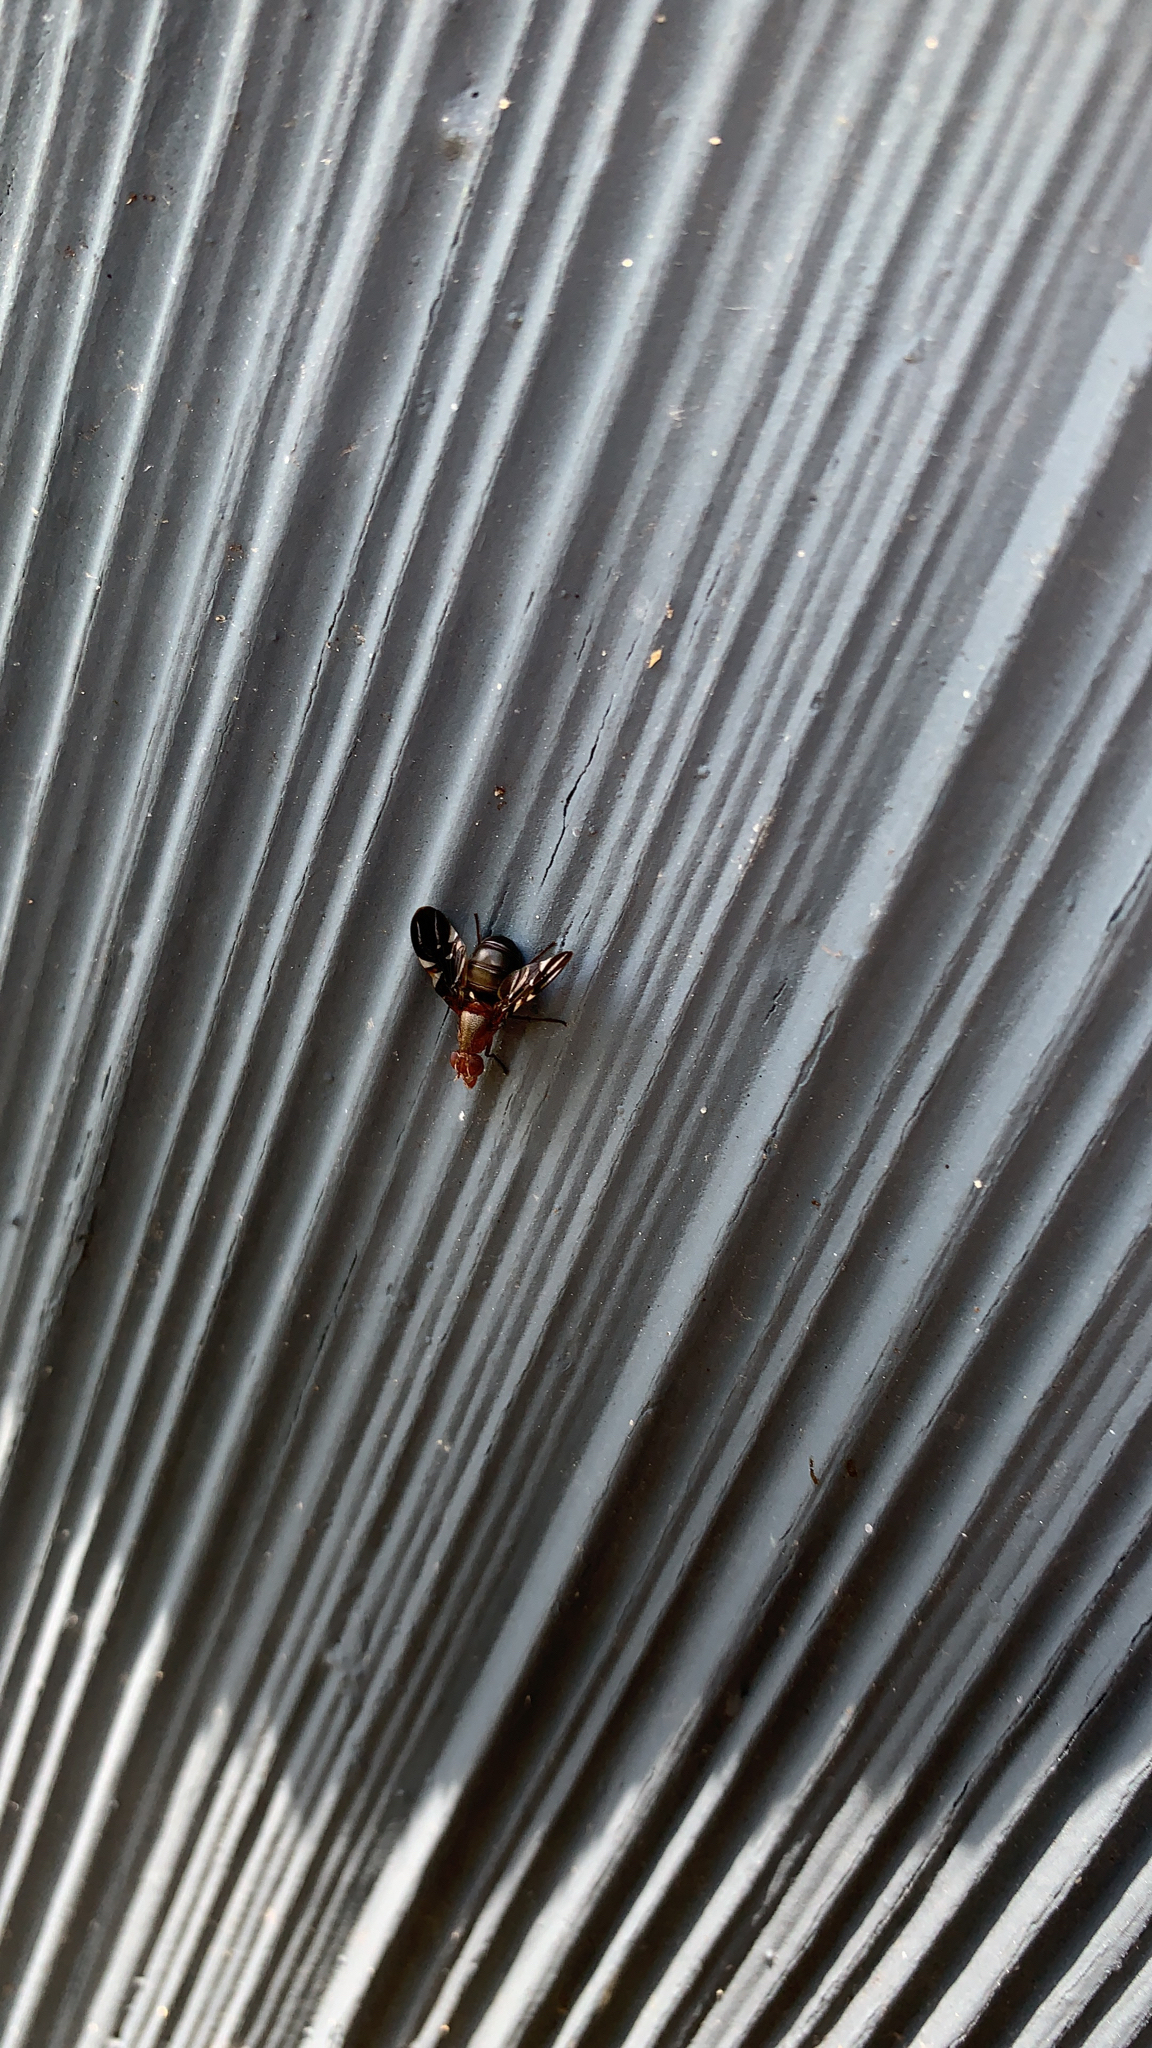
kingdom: Animalia
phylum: Arthropoda
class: Insecta
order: Diptera
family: Ulidiidae
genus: Delphinia
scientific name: Delphinia picta
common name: Common picture-winged fly
